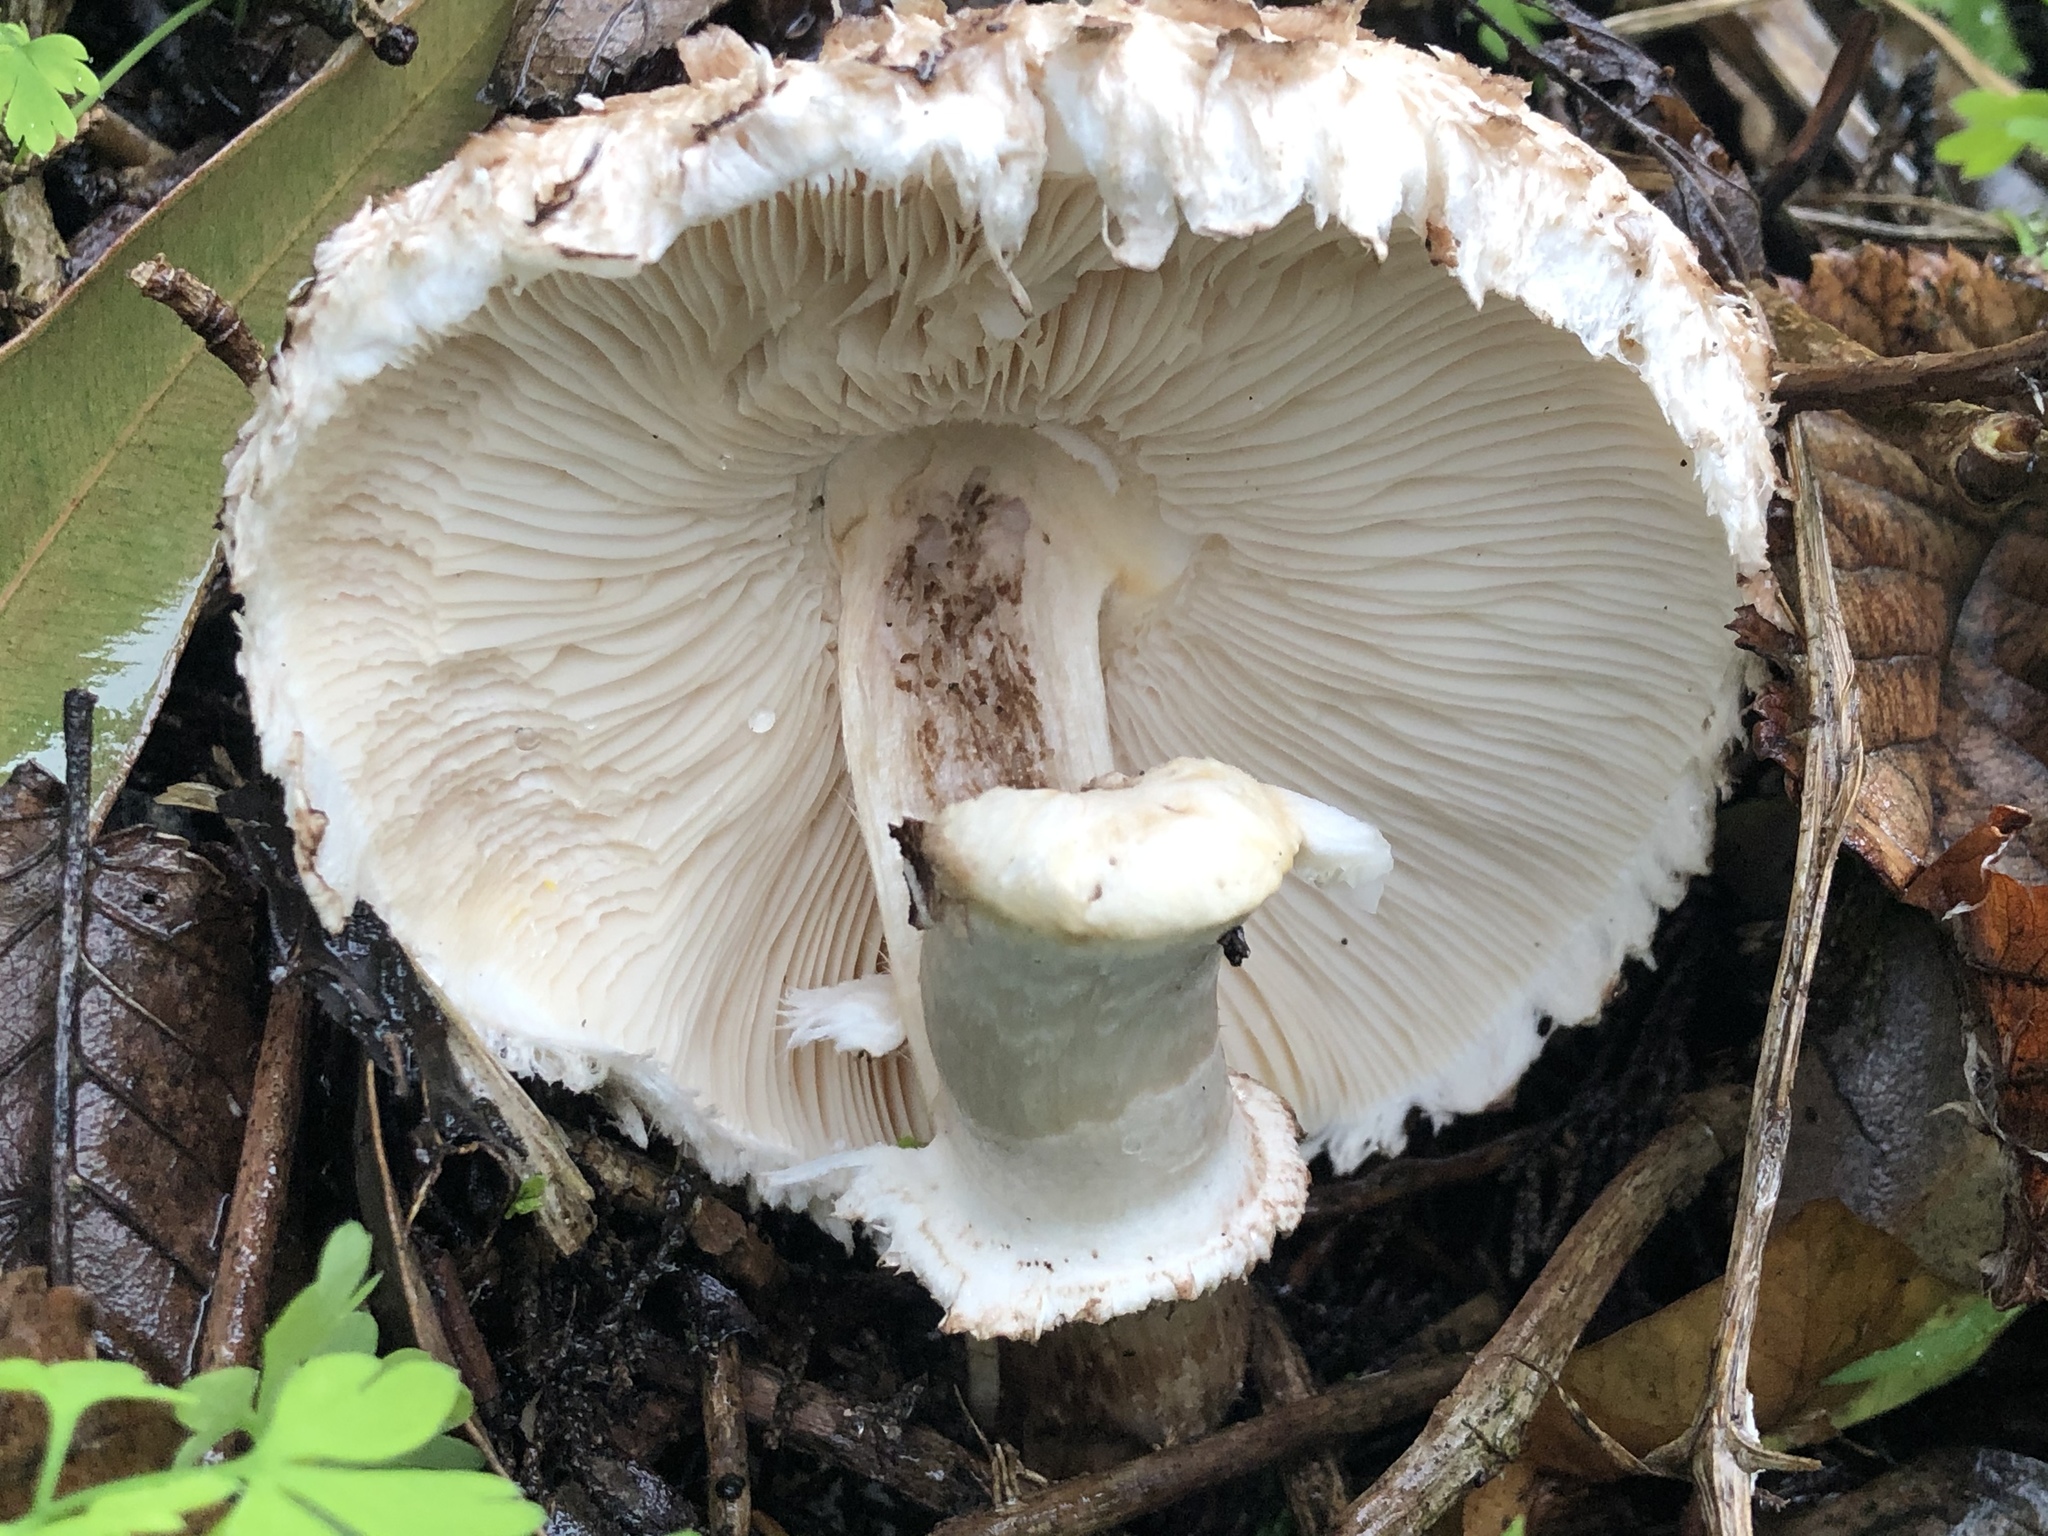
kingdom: Fungi
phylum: Basidiomycota
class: Agaricomycetes
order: Agaricales
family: Agaricaceae
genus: Chlorophyllum
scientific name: Chlorophyllum brunneum
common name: Brown parasol
